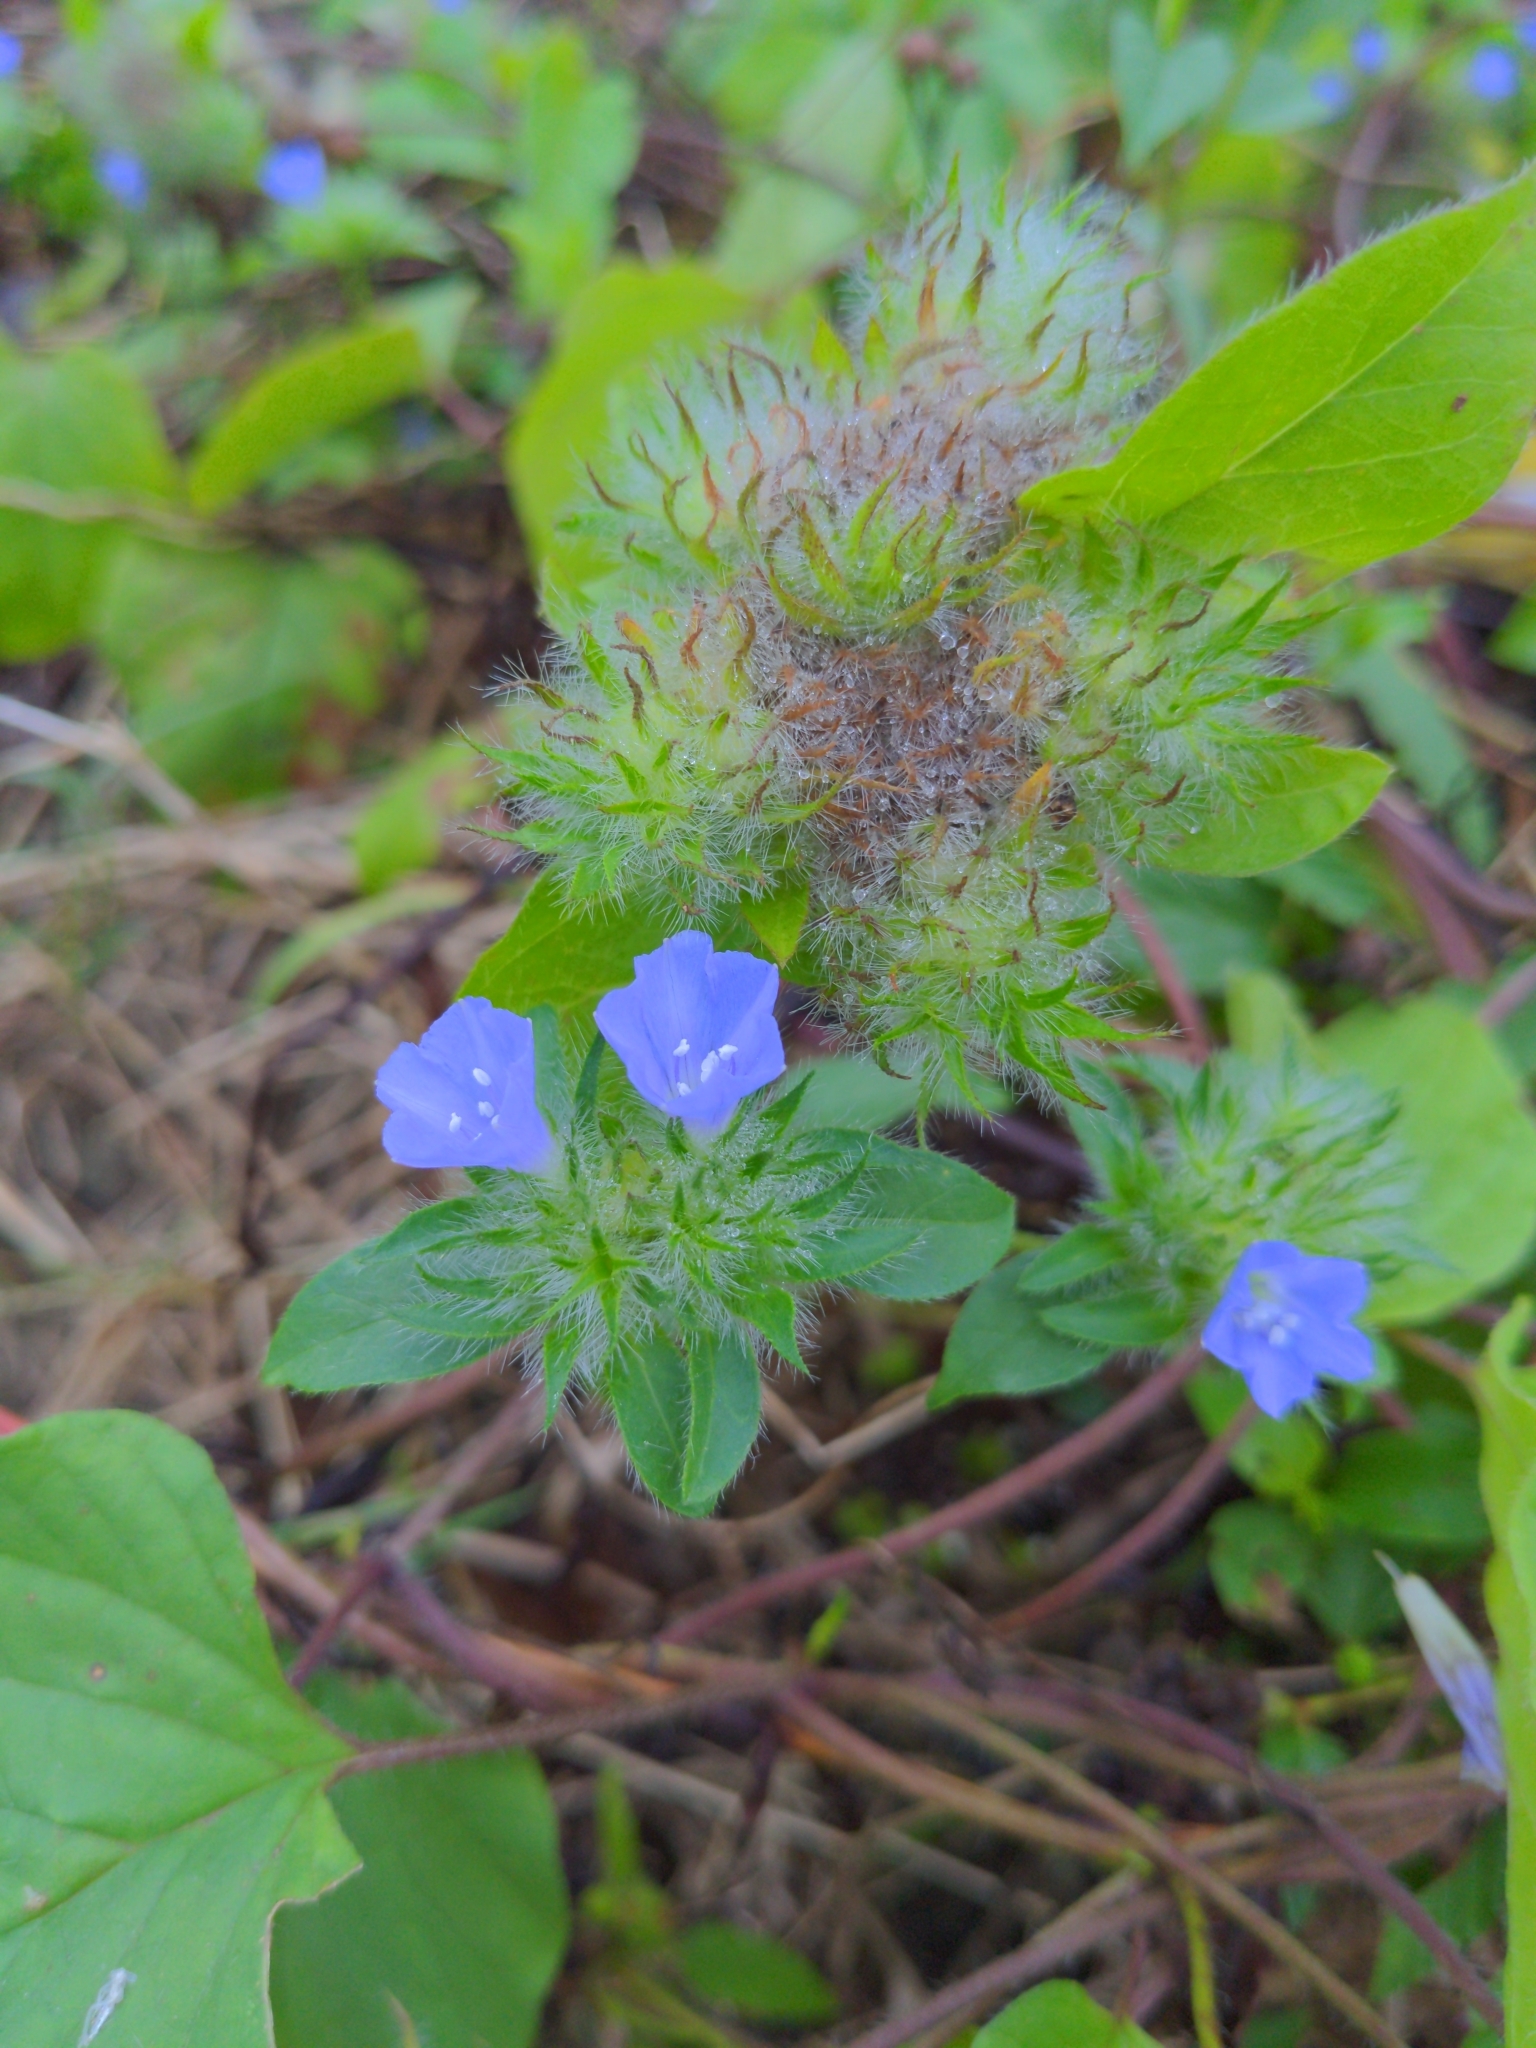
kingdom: Plantae
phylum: Tracheophyta
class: Magnoliopsida
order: Solanales
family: Convolvulaceae
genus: Jacquemontia
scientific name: Jacquemontia tamnifolia
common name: Hairy clustervine
